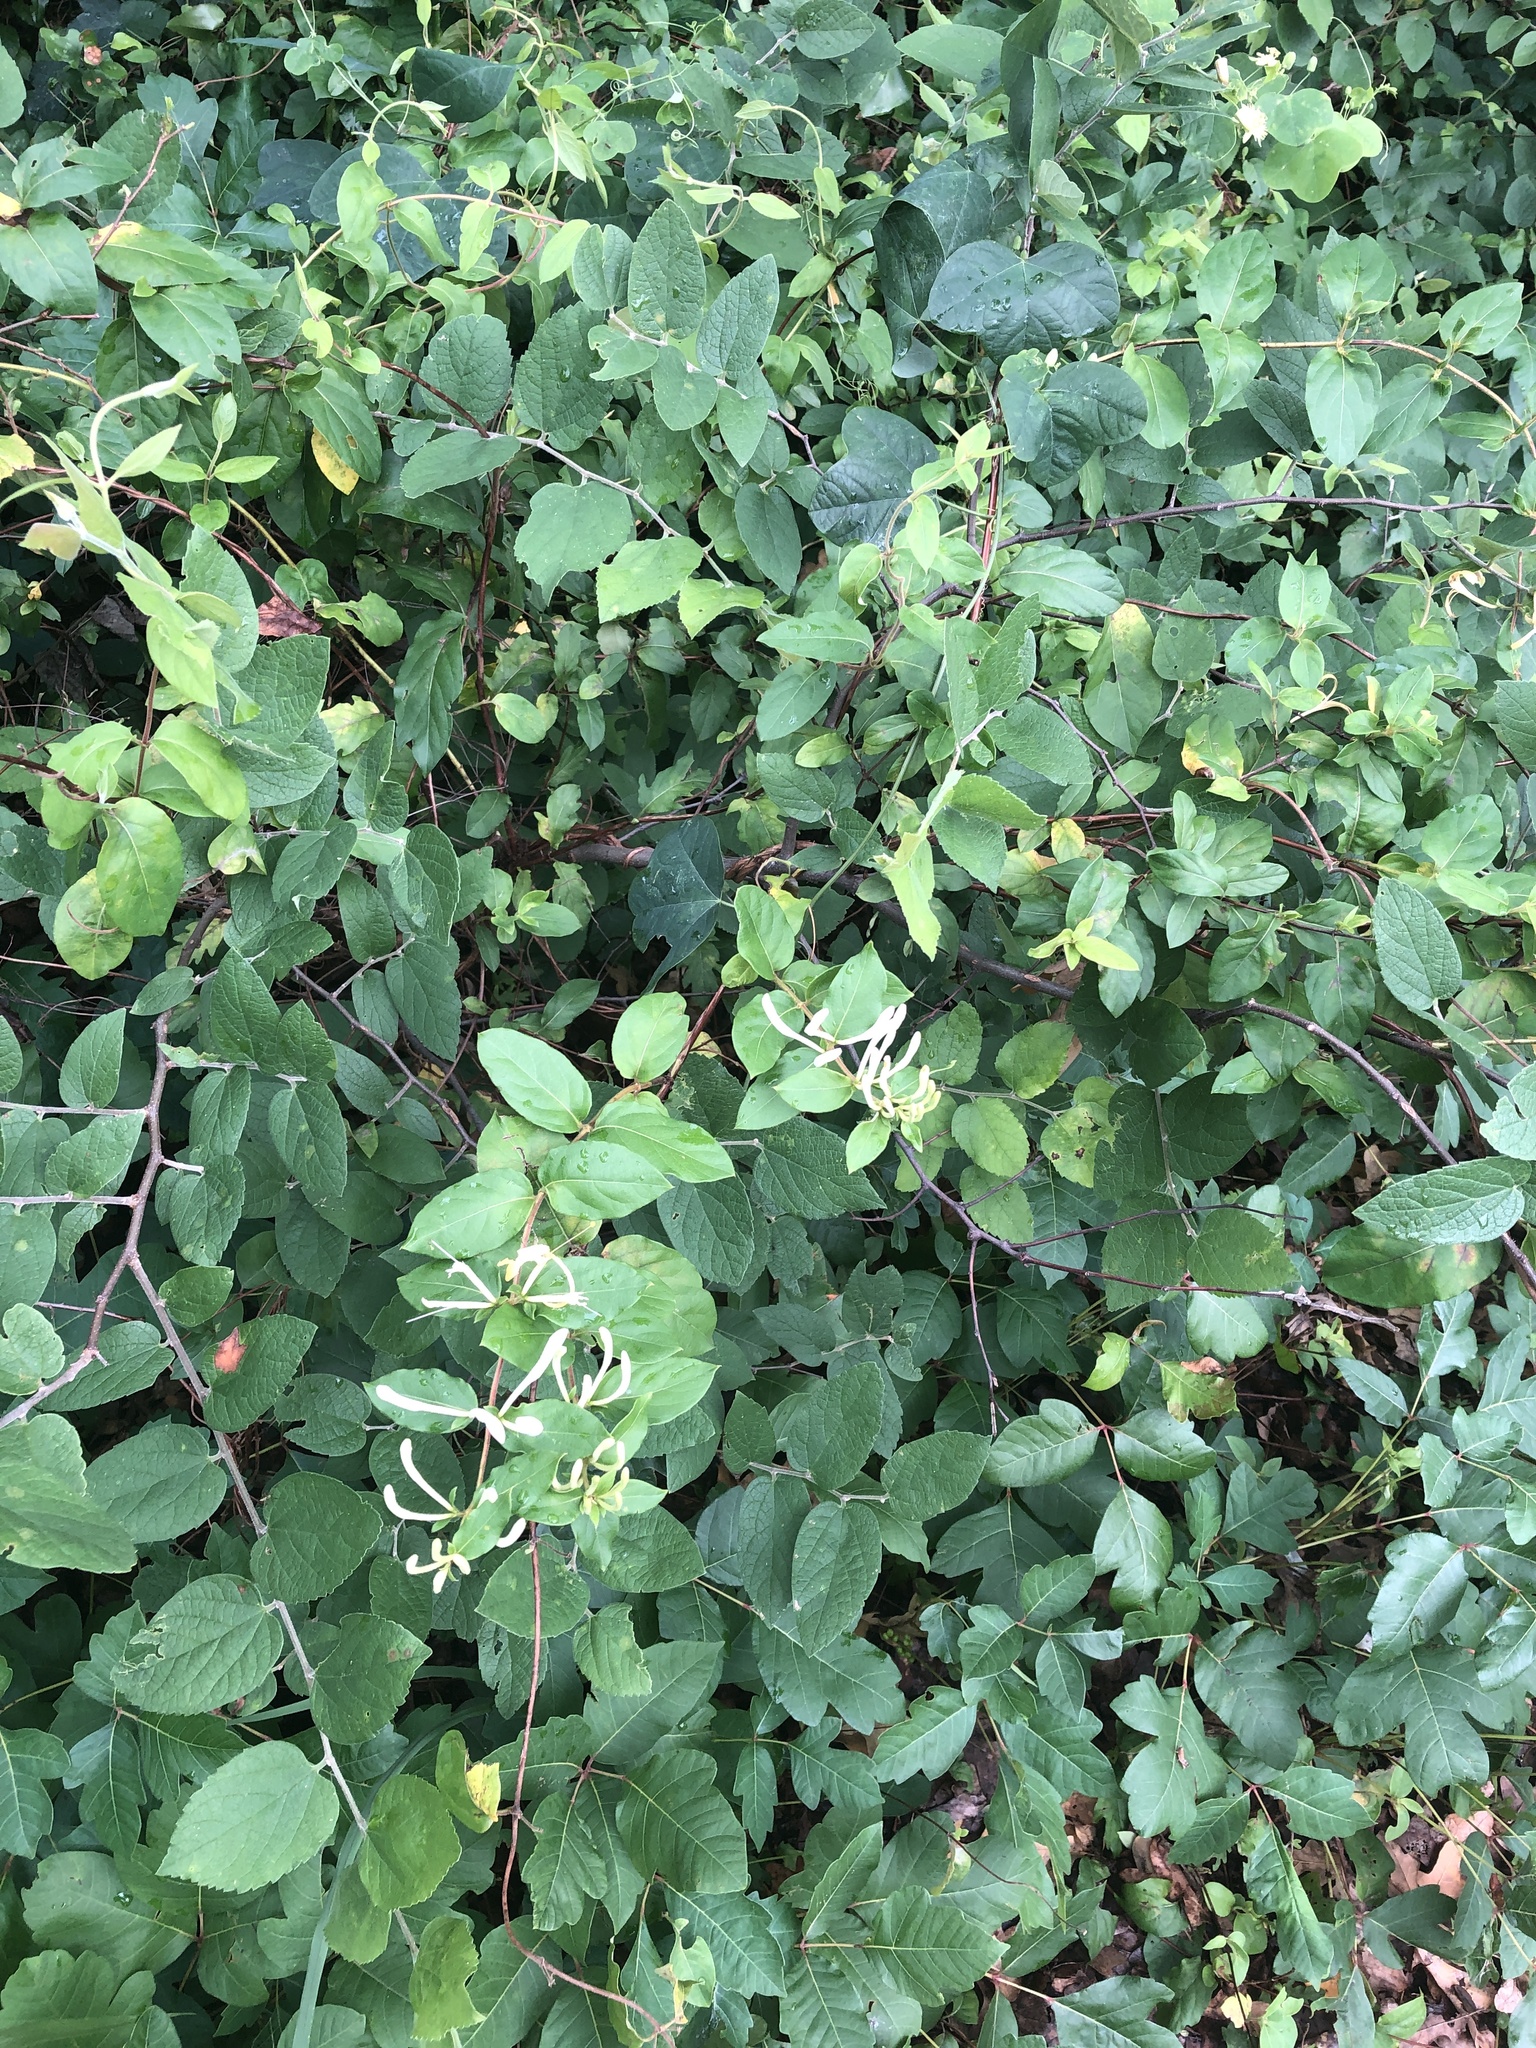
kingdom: Plantae
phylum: Tracheophyta
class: Magnoliopsida
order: Dipsacales
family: Caprifoliaceae
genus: Lonicera
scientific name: Lonicera japonica
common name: Japanese honeysuckle
